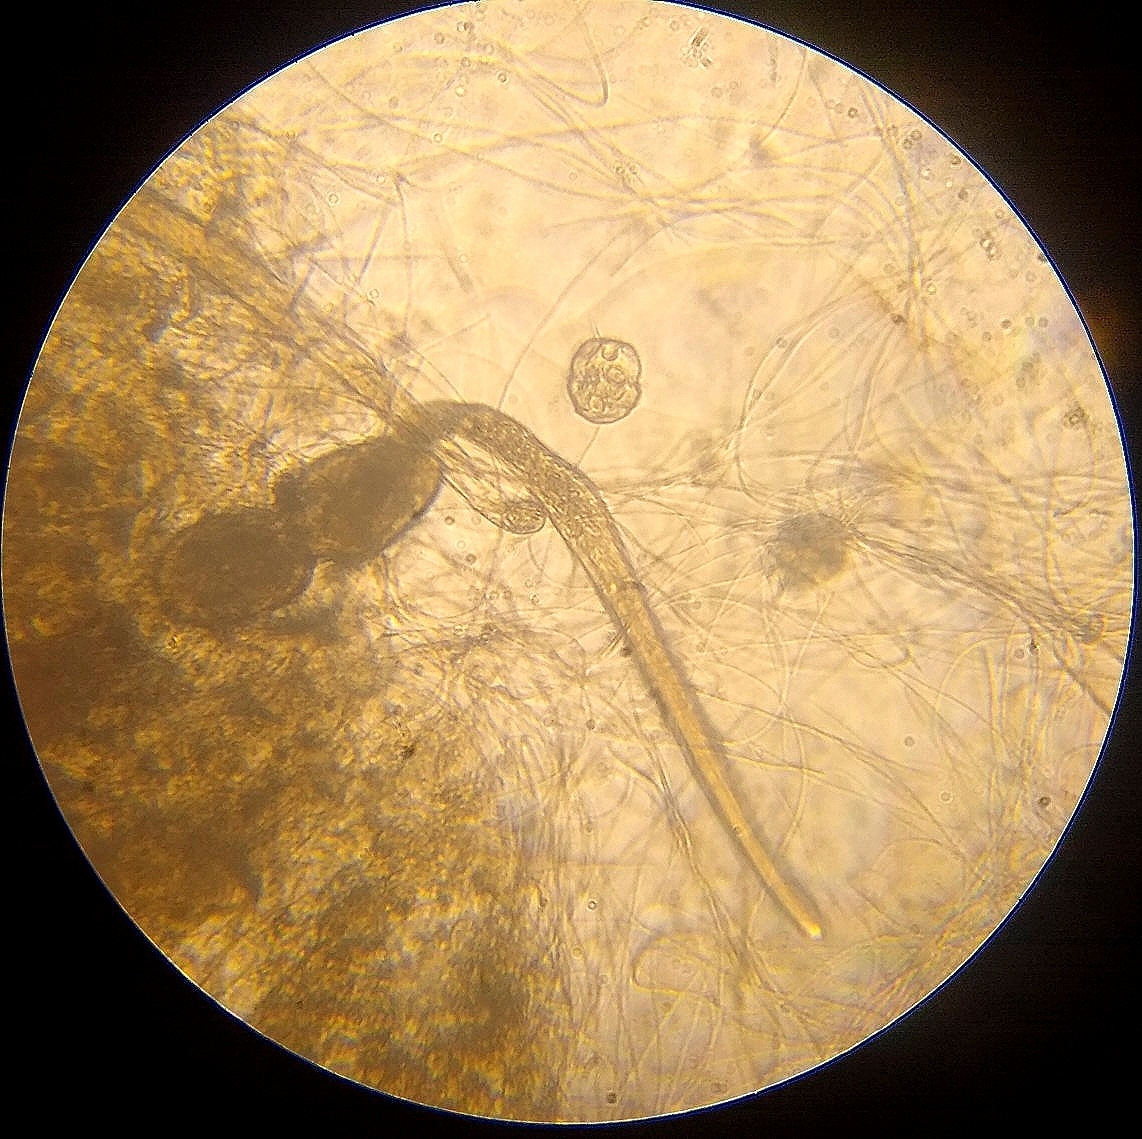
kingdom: Chromista
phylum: Ciliophora
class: Oligohymenophorea
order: Hymenostomatida
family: Urocentridae
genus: Urocentrum
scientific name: Urocentrum turbo
